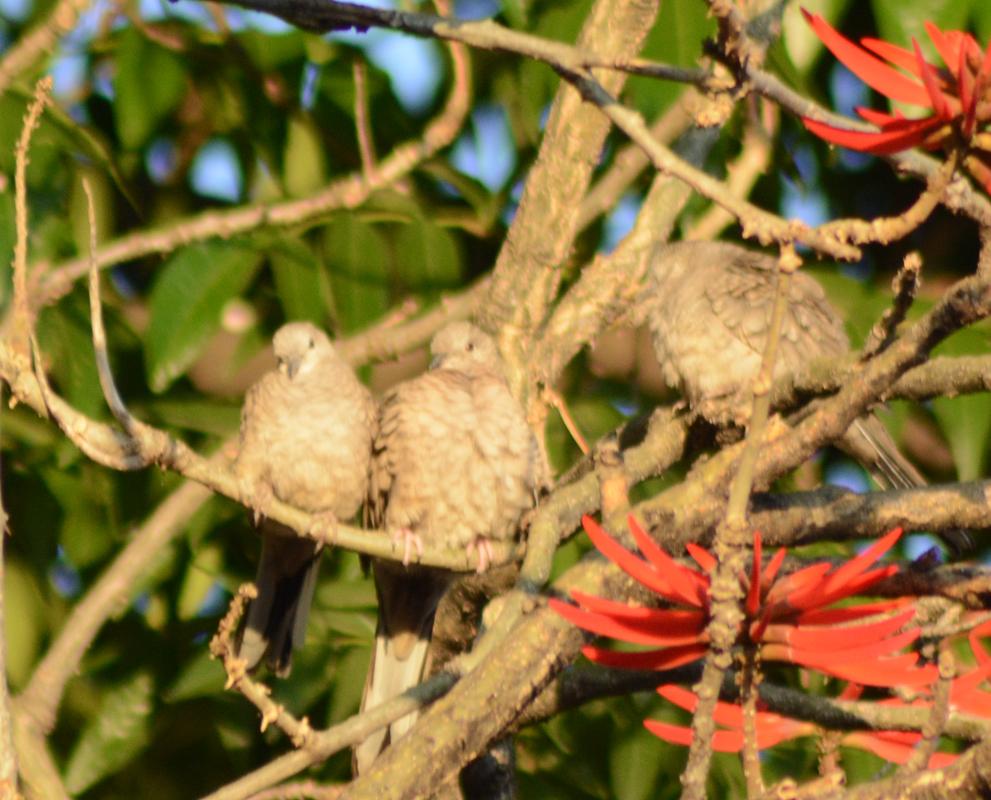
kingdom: Animalia
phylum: Chordata
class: Aves
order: Columbiformes
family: Columbidae
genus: Columbina
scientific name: Columbina inca
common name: Inca dove
